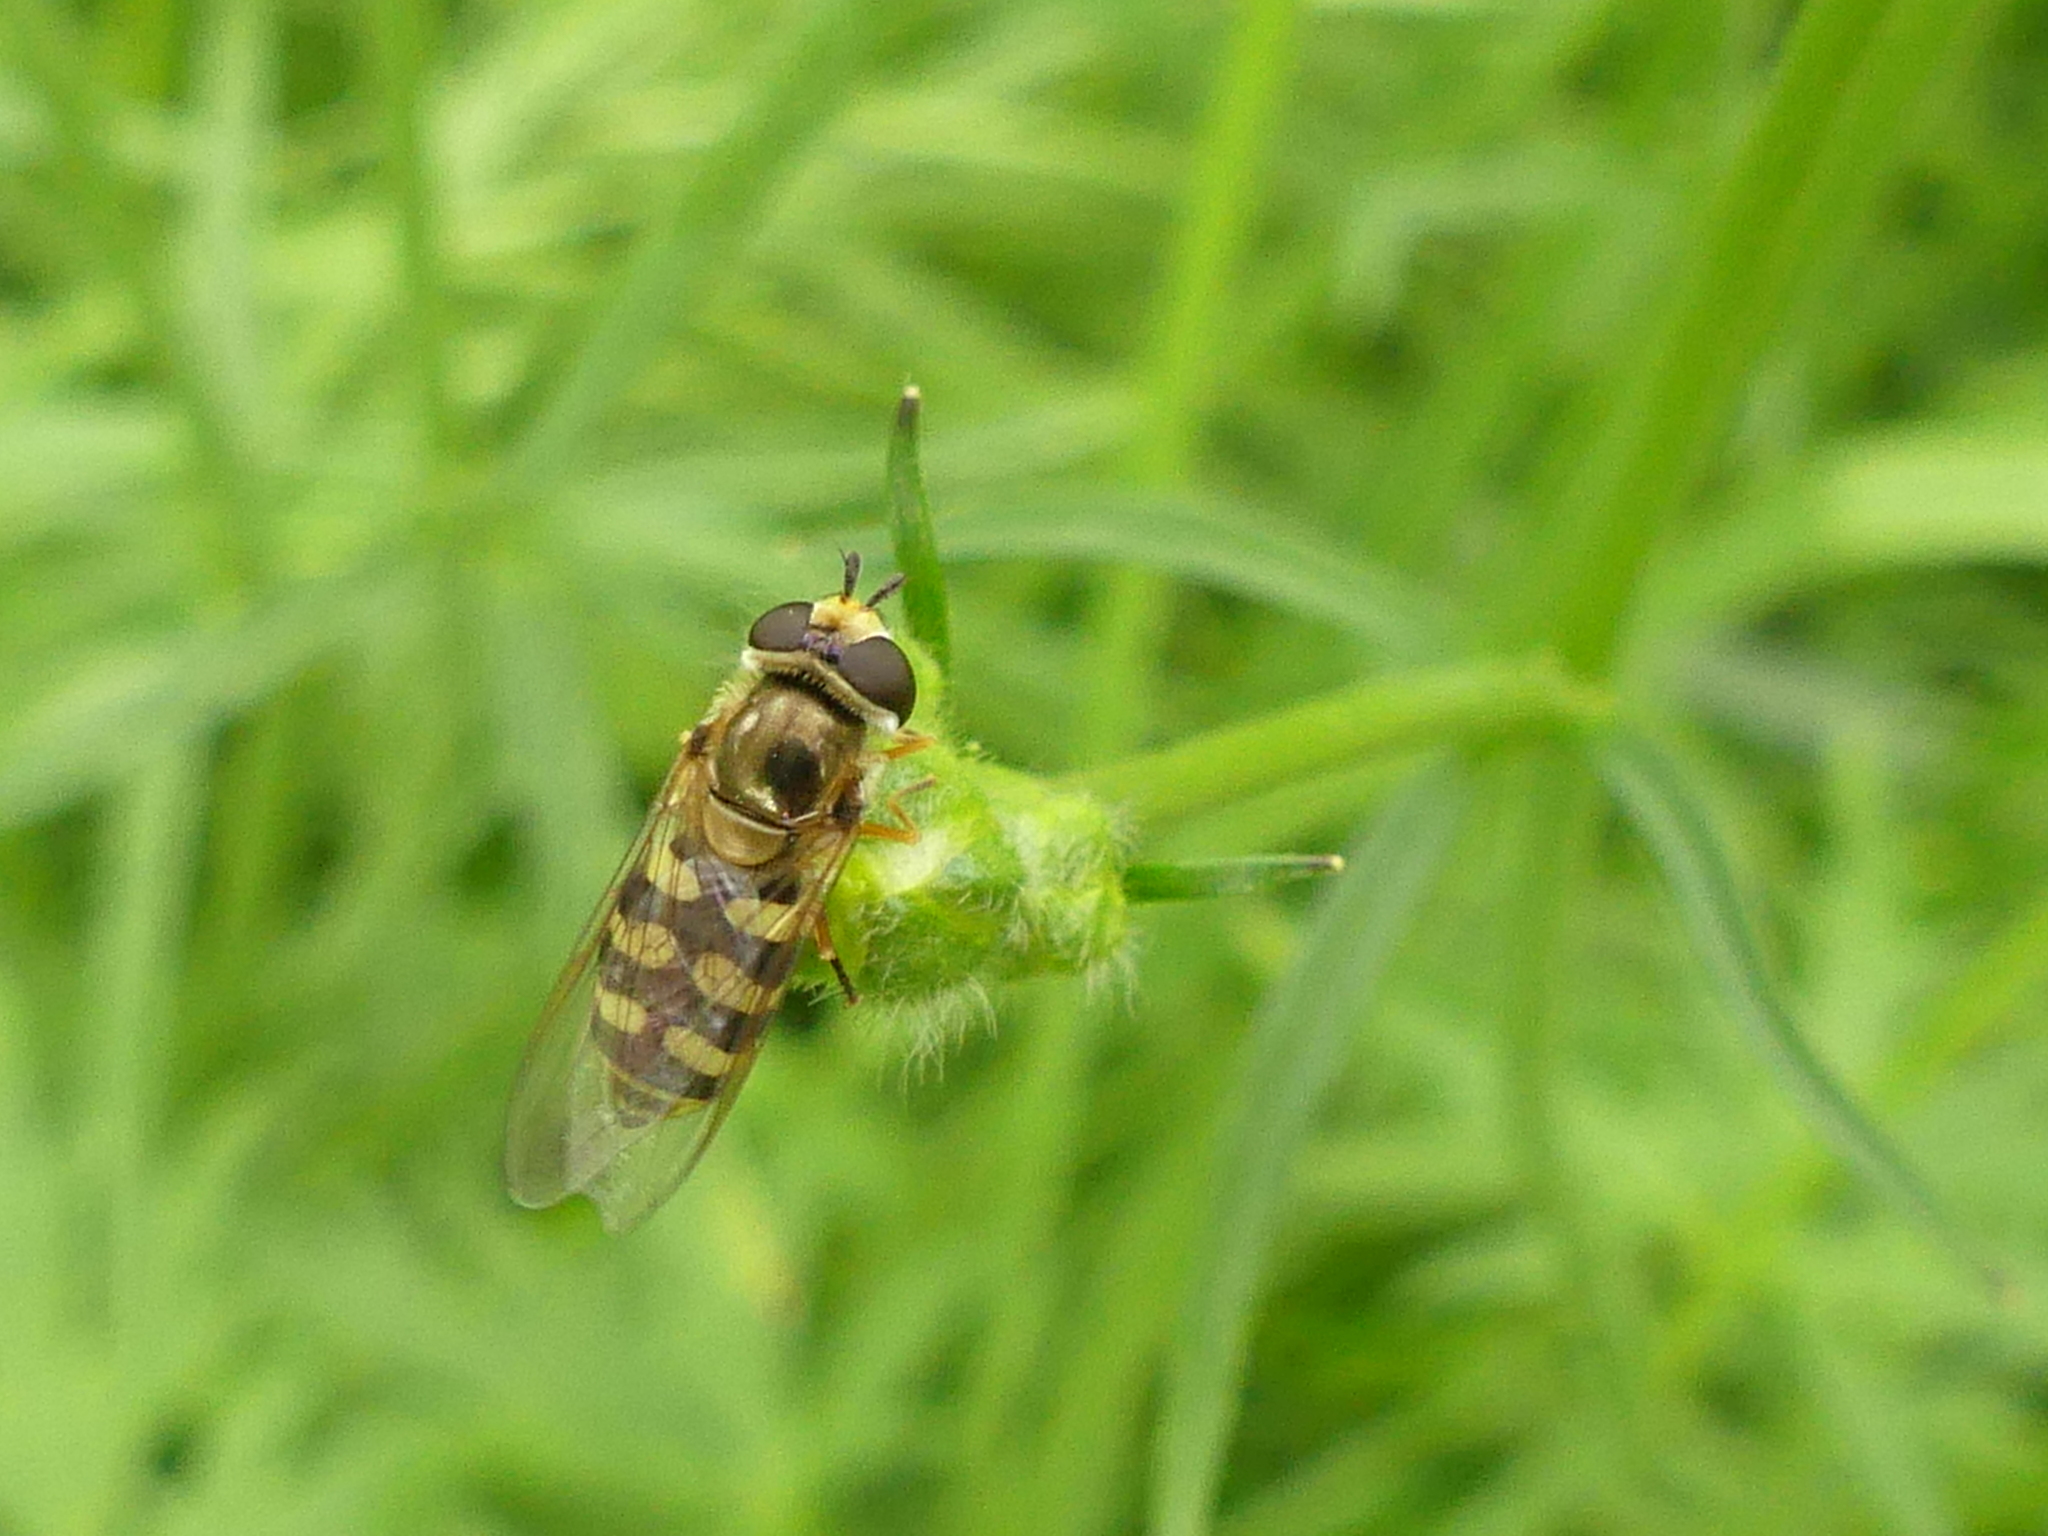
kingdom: Animalia
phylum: Arthropoda
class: Insecta
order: Diptera
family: Syrphidae
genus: Eupeodes
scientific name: Eupeodes corollae
